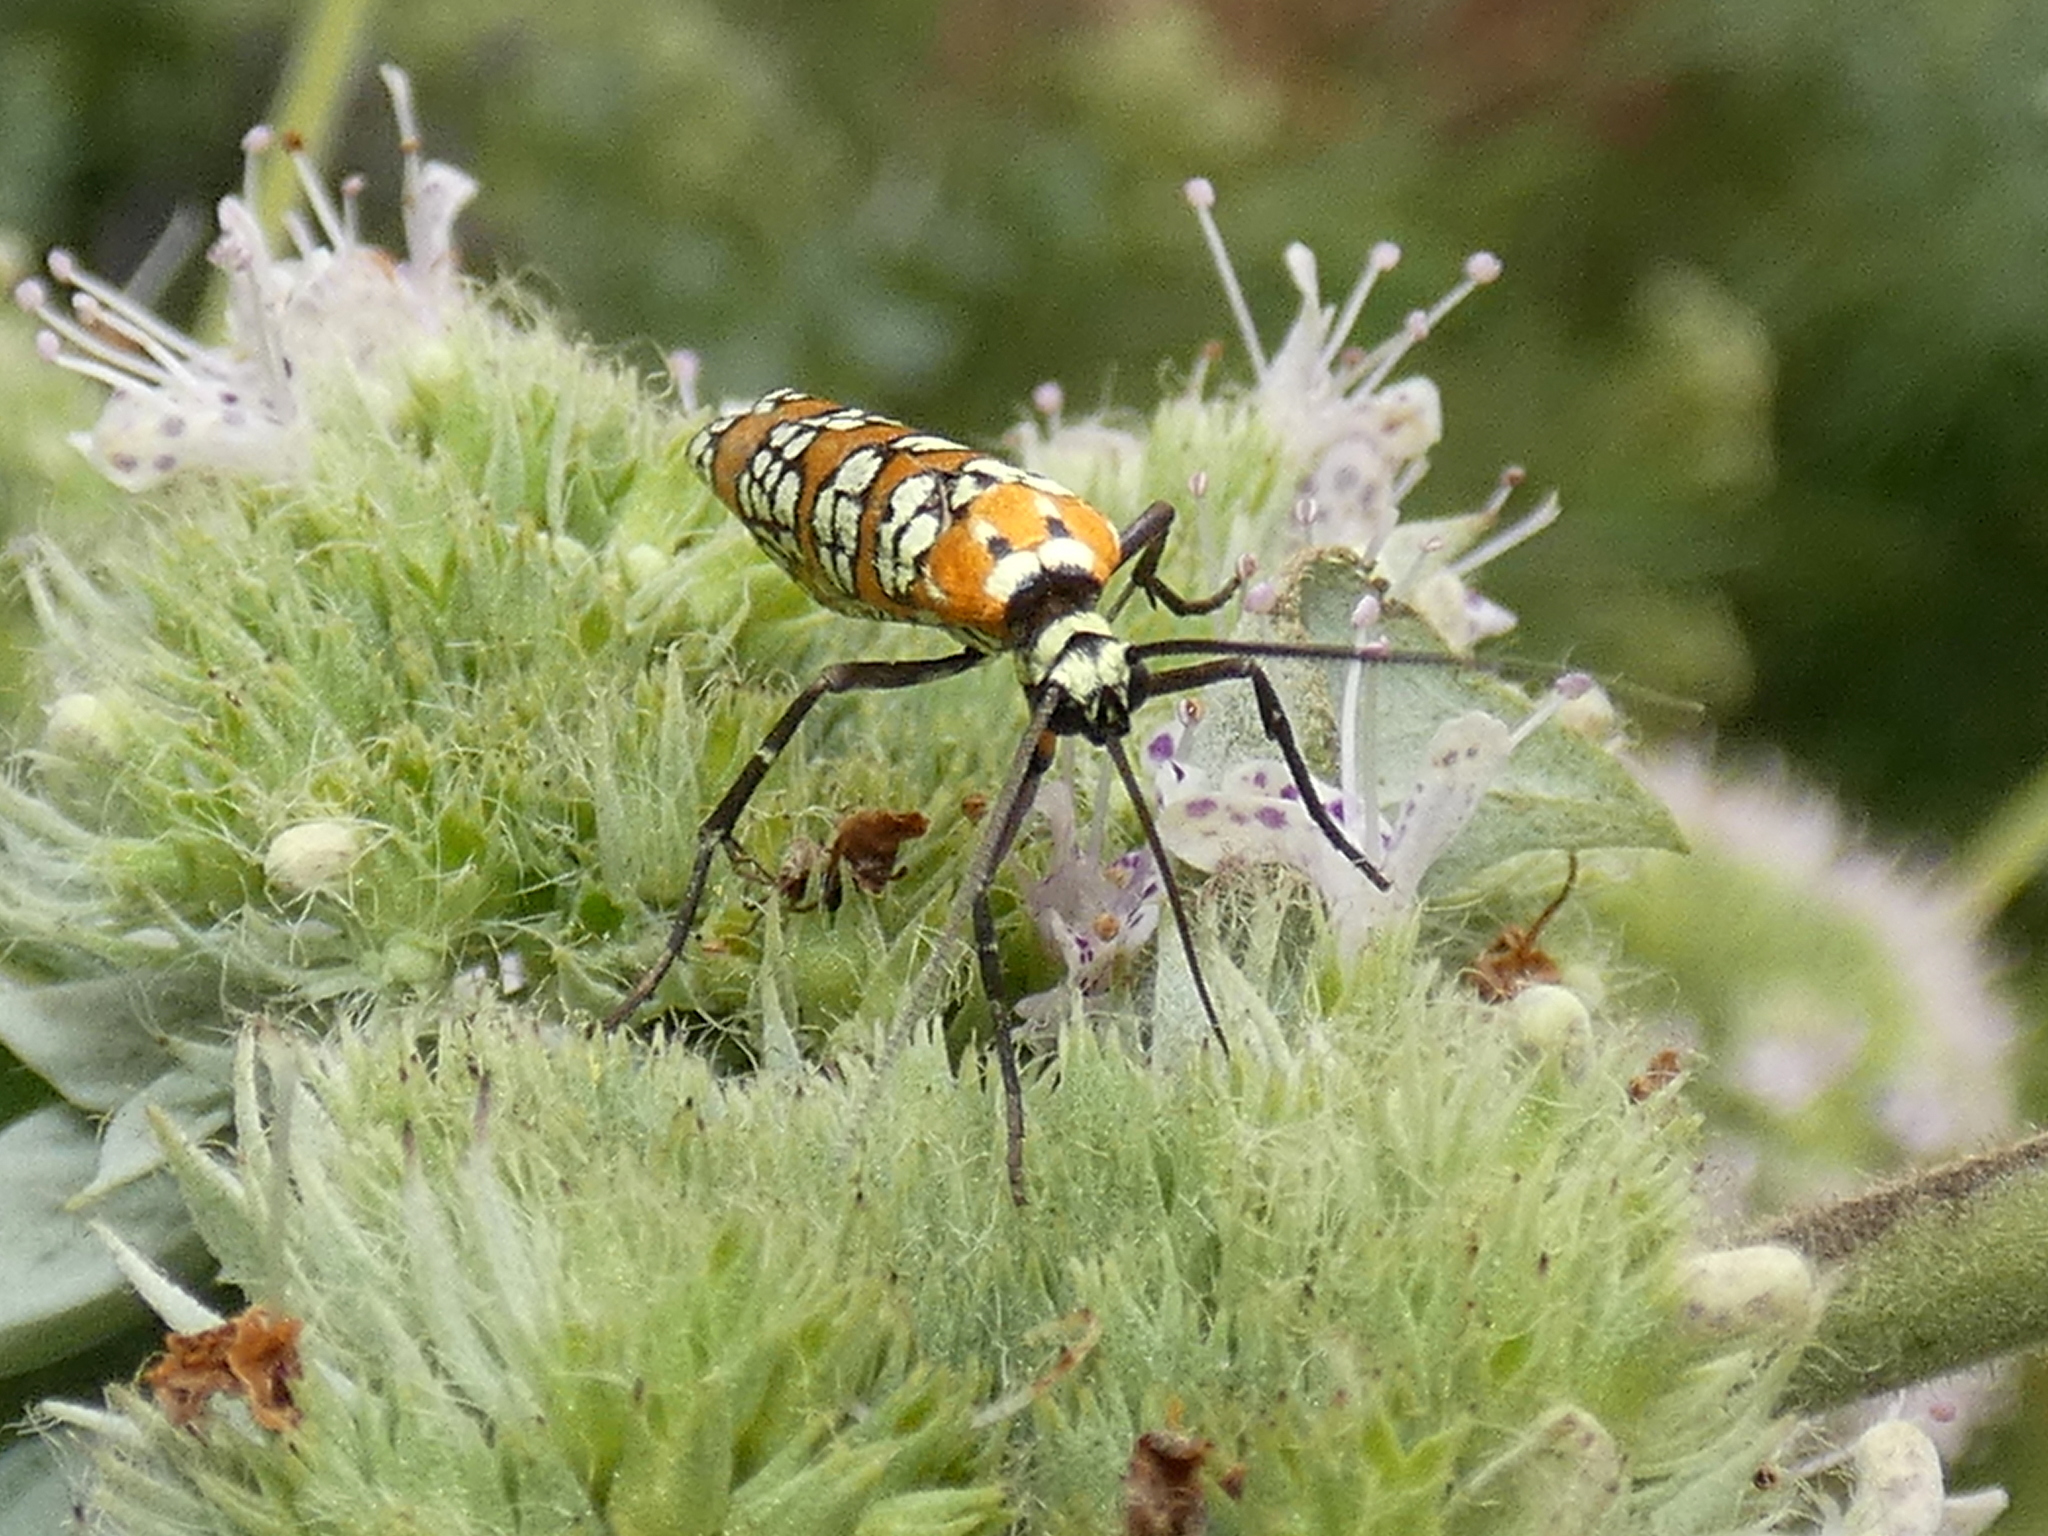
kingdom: Animalia
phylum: Arthropoda
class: Insecta
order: Lepidoptera
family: Attevidae
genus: Atteva
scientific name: Atteva punctella
